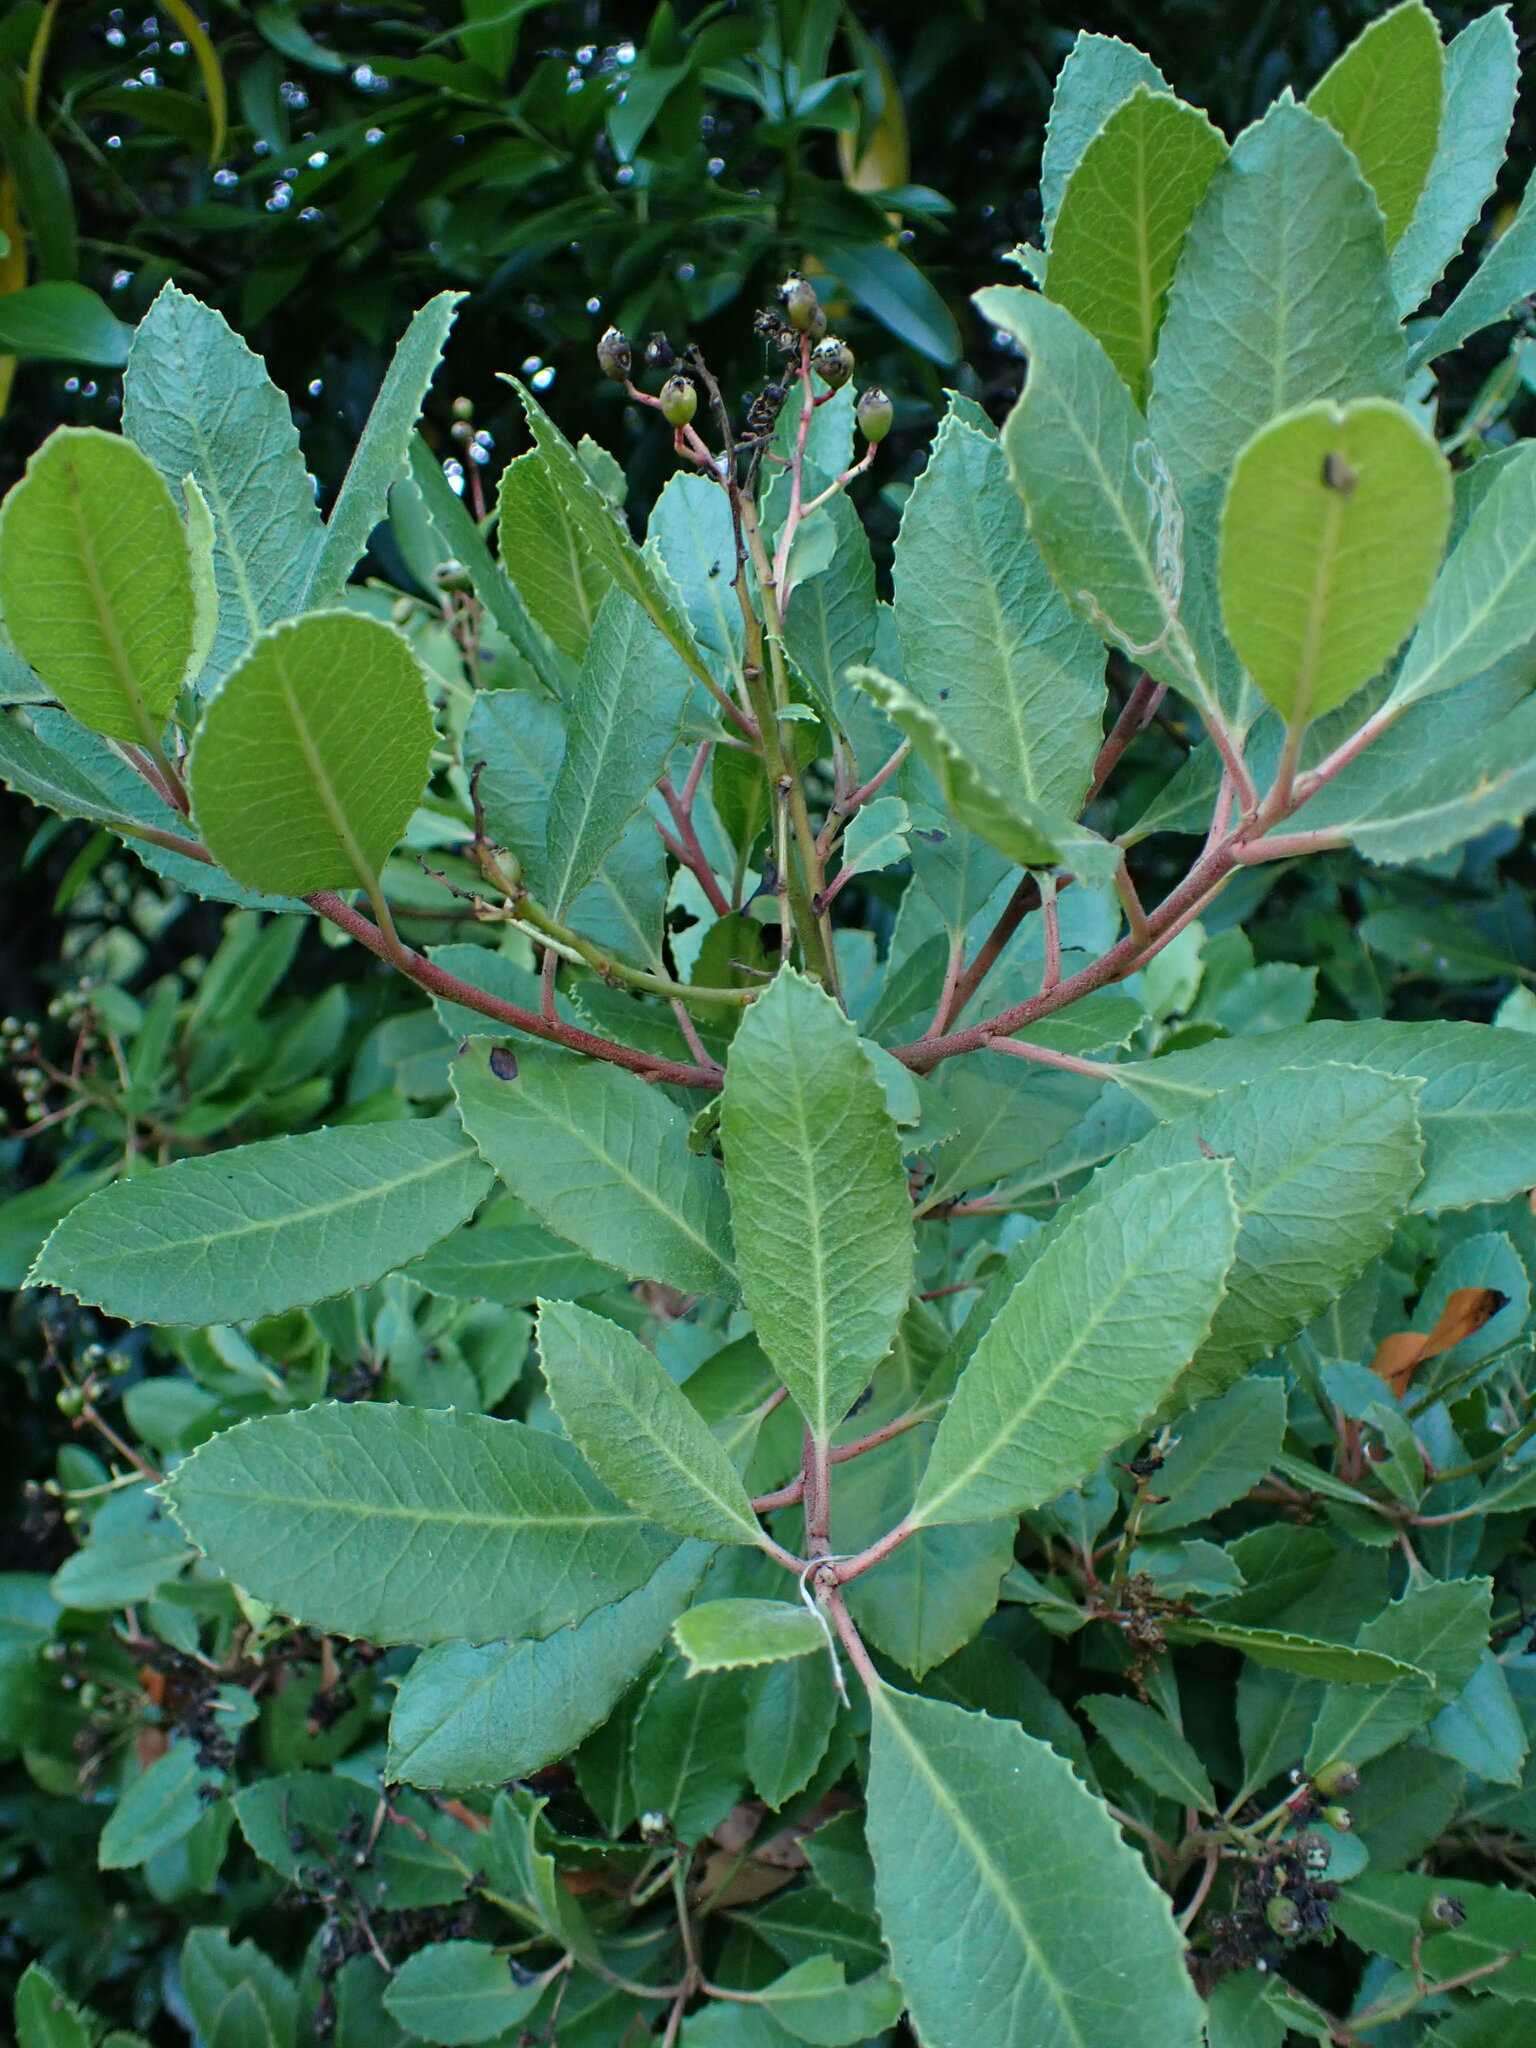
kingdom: Plantae
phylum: Tracheophyta
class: Magnoliopsida
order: Rosales
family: Rosaceae
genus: Heteromeles
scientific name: Heteromeles arbutifolia
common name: California-holly
